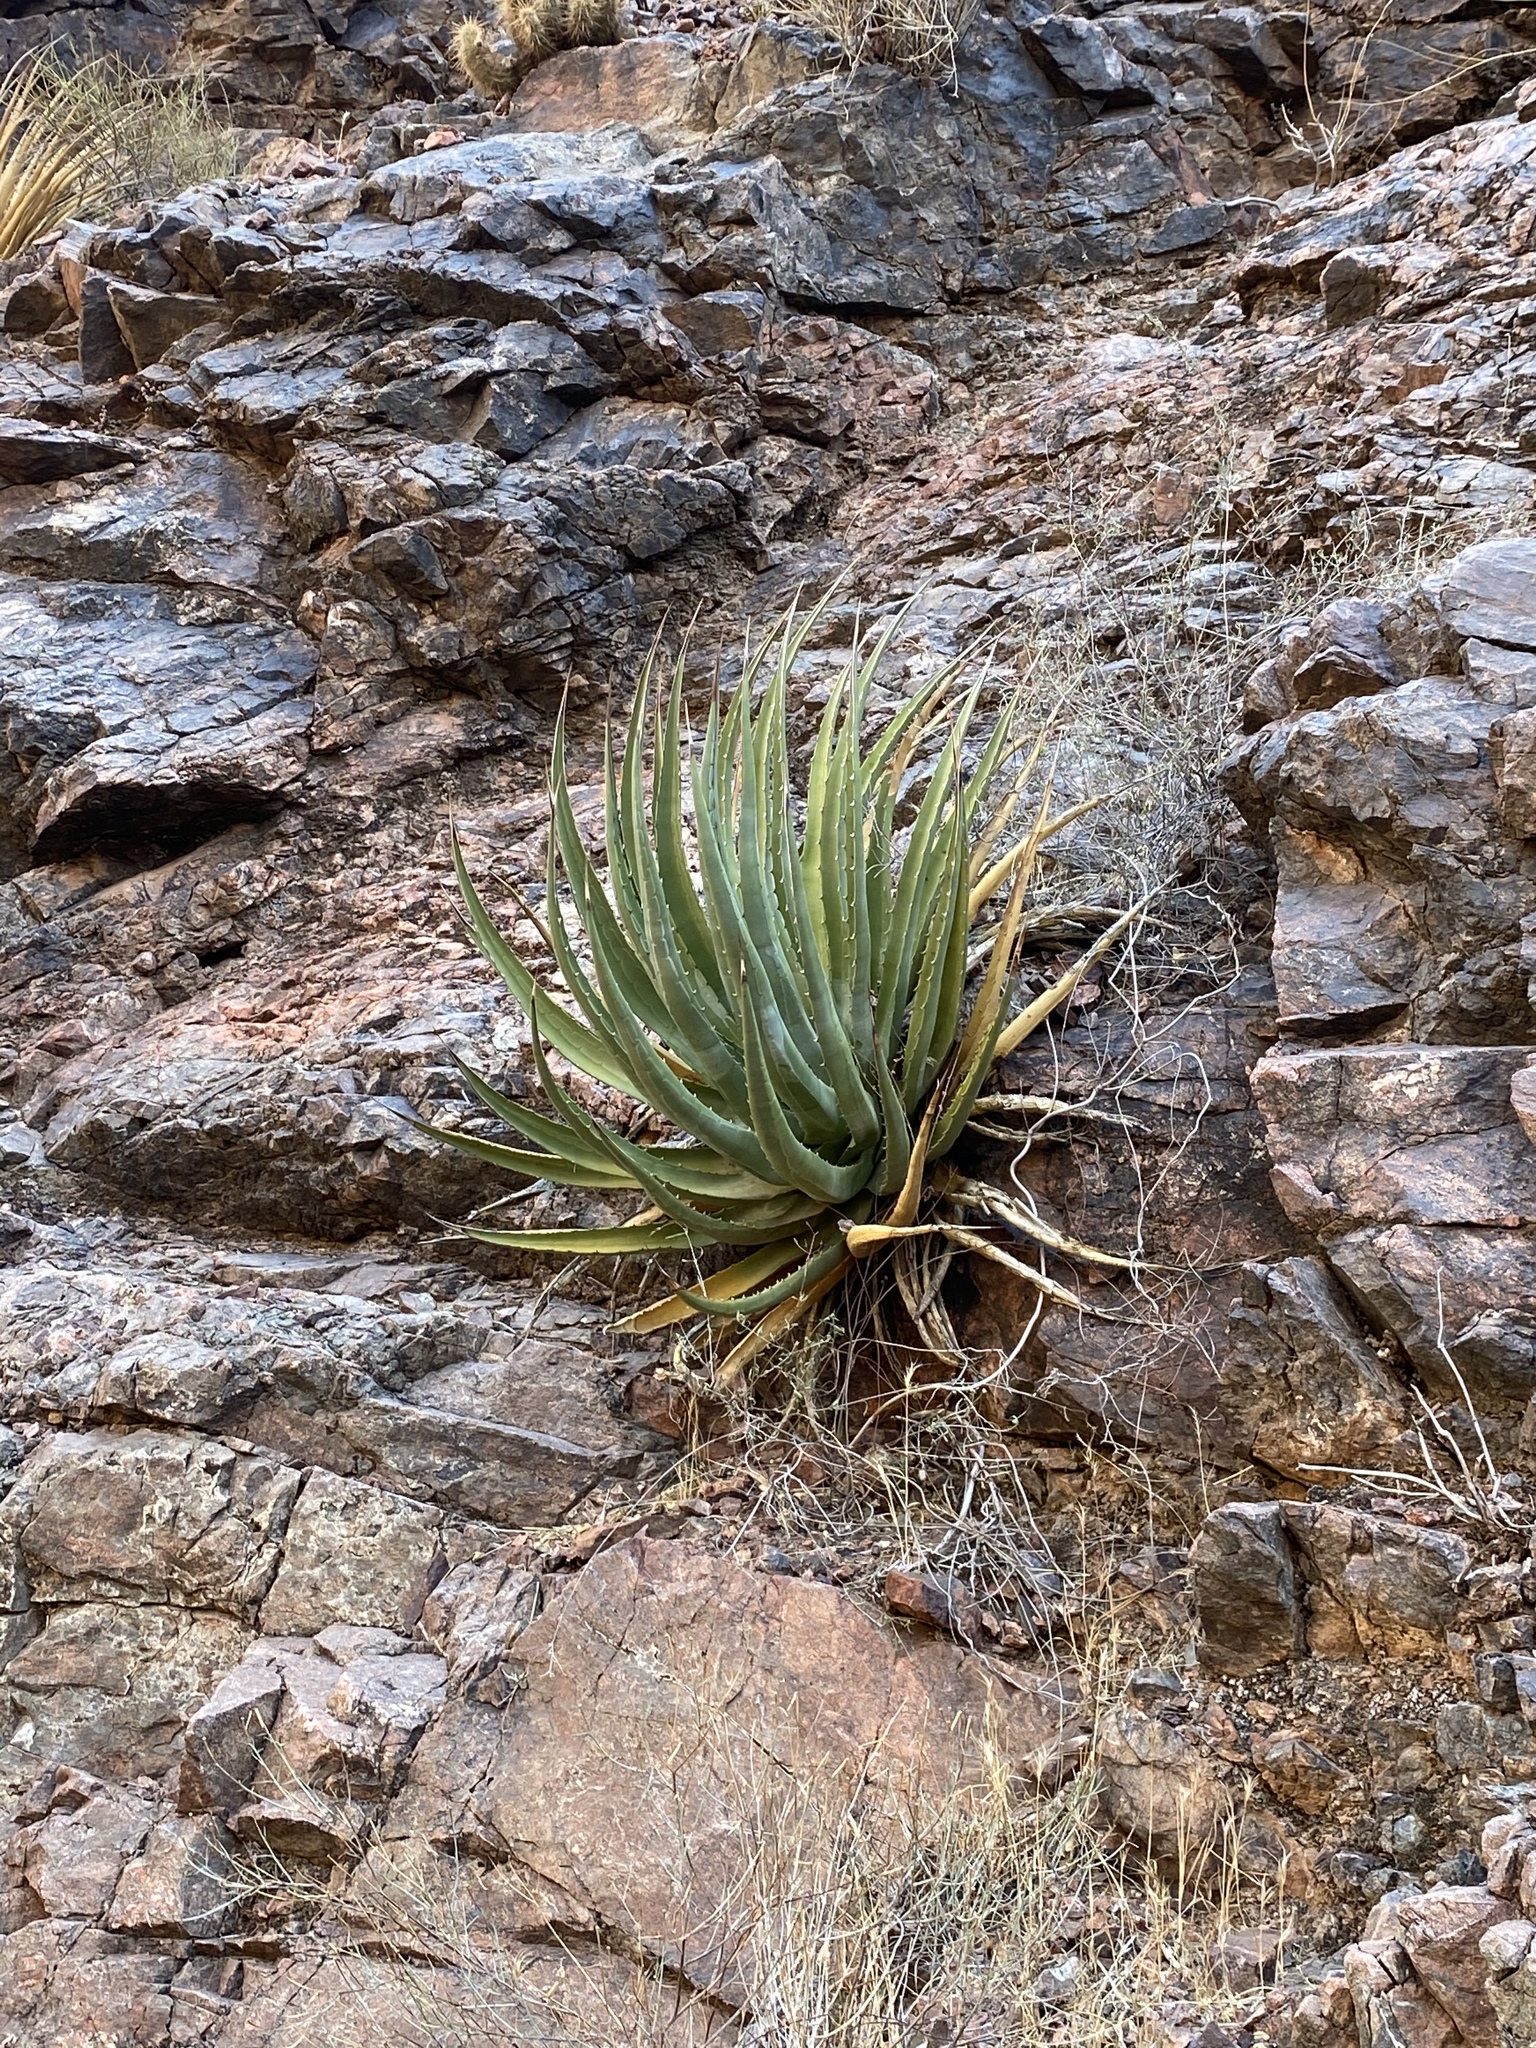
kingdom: Plantae
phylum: Tracheophyta
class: Liliopsida
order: Asparagales
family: Asparagaceae
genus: Agave
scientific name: Agave utahensis
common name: Utah agave
